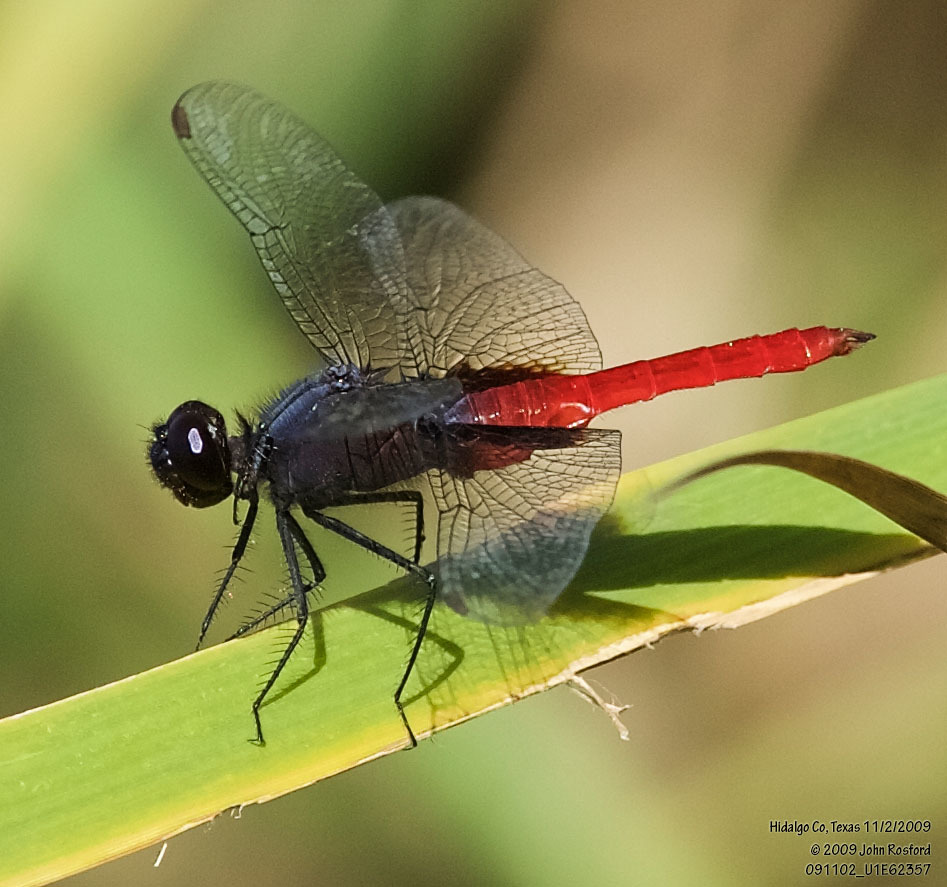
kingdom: Animalia
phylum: Arthropoda
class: Insecta
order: Odonata
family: Libellulidae
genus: Planiplax
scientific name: Planiplax sanguiniventris
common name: Mexican scarlet-tail
